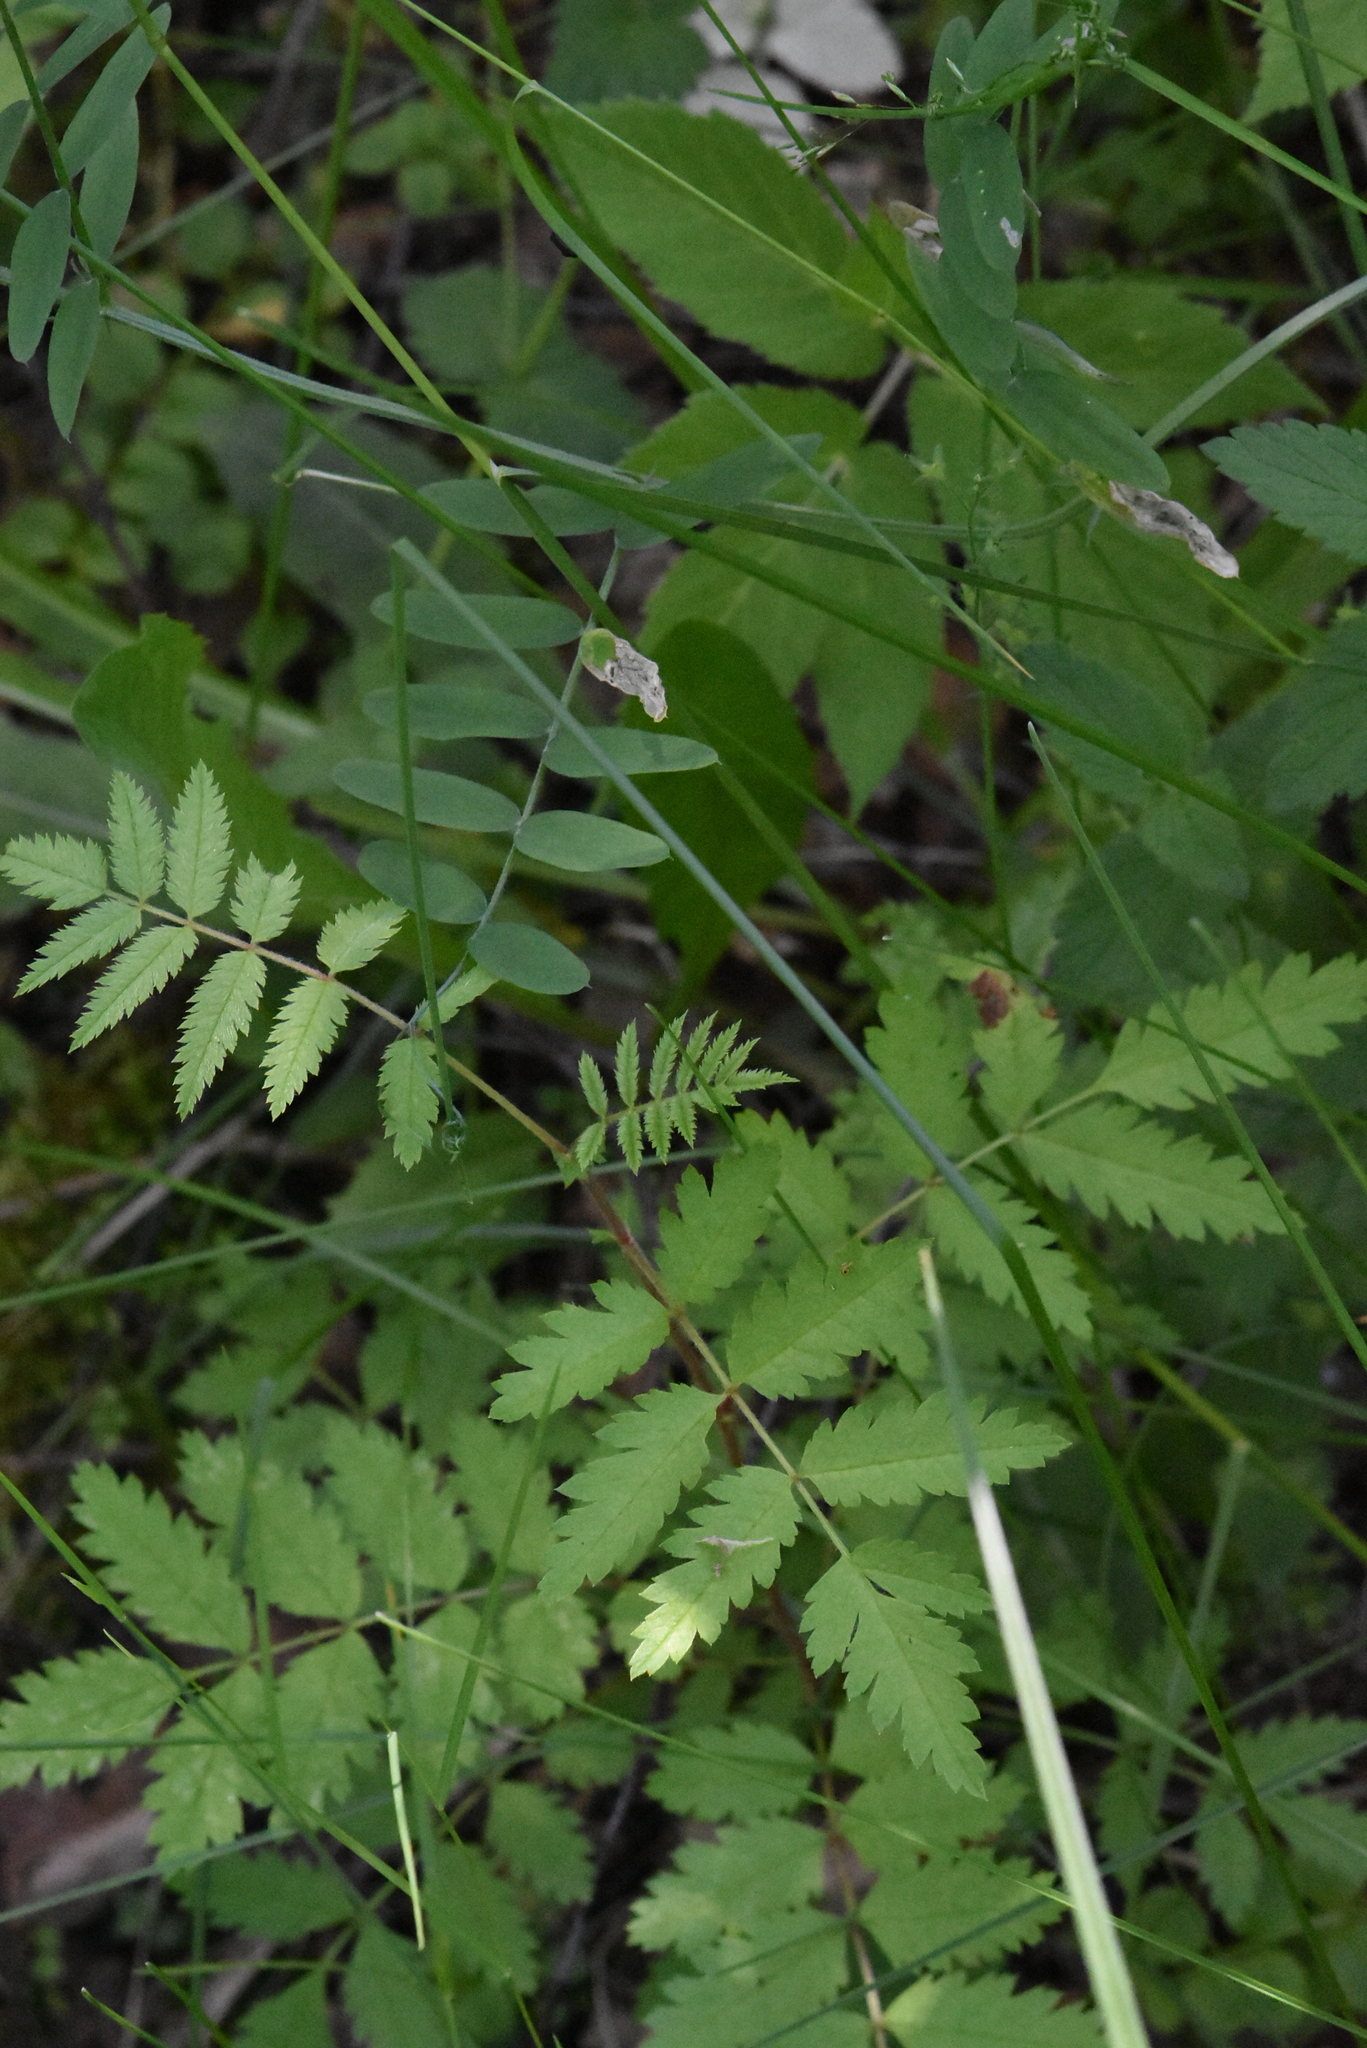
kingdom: Plantae
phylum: Tracheophyta
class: Magnoliopsida
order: Rosales
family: Rosaceae
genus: Sorbus
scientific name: Sorbus aucuparia
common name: Rowan
